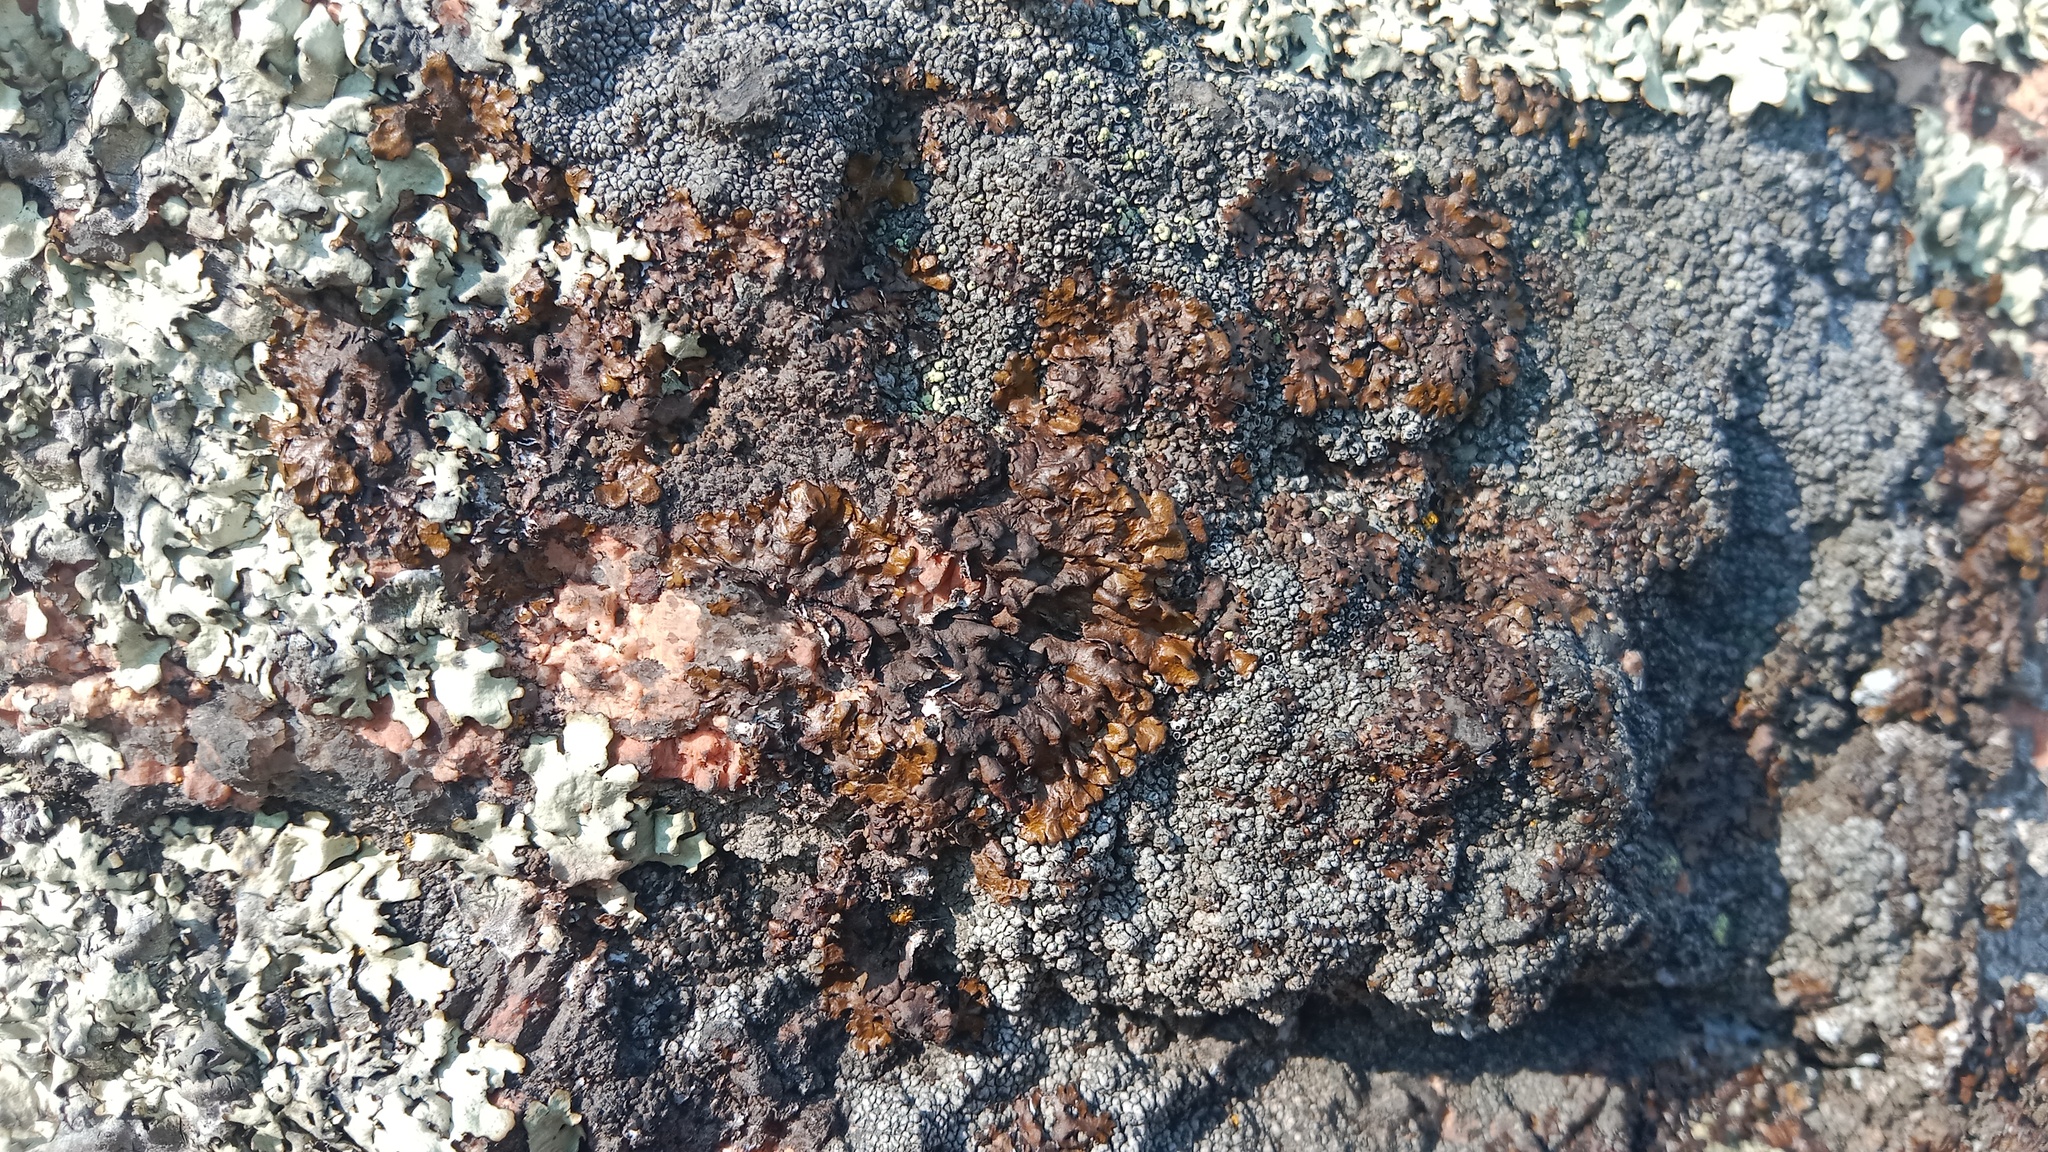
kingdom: Fungi
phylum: Ascomycota
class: Lecanoromycetes
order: Lecanorales
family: Parmeliaceae
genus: Xanthoparmelia
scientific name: Xanthoparmelia pulla
